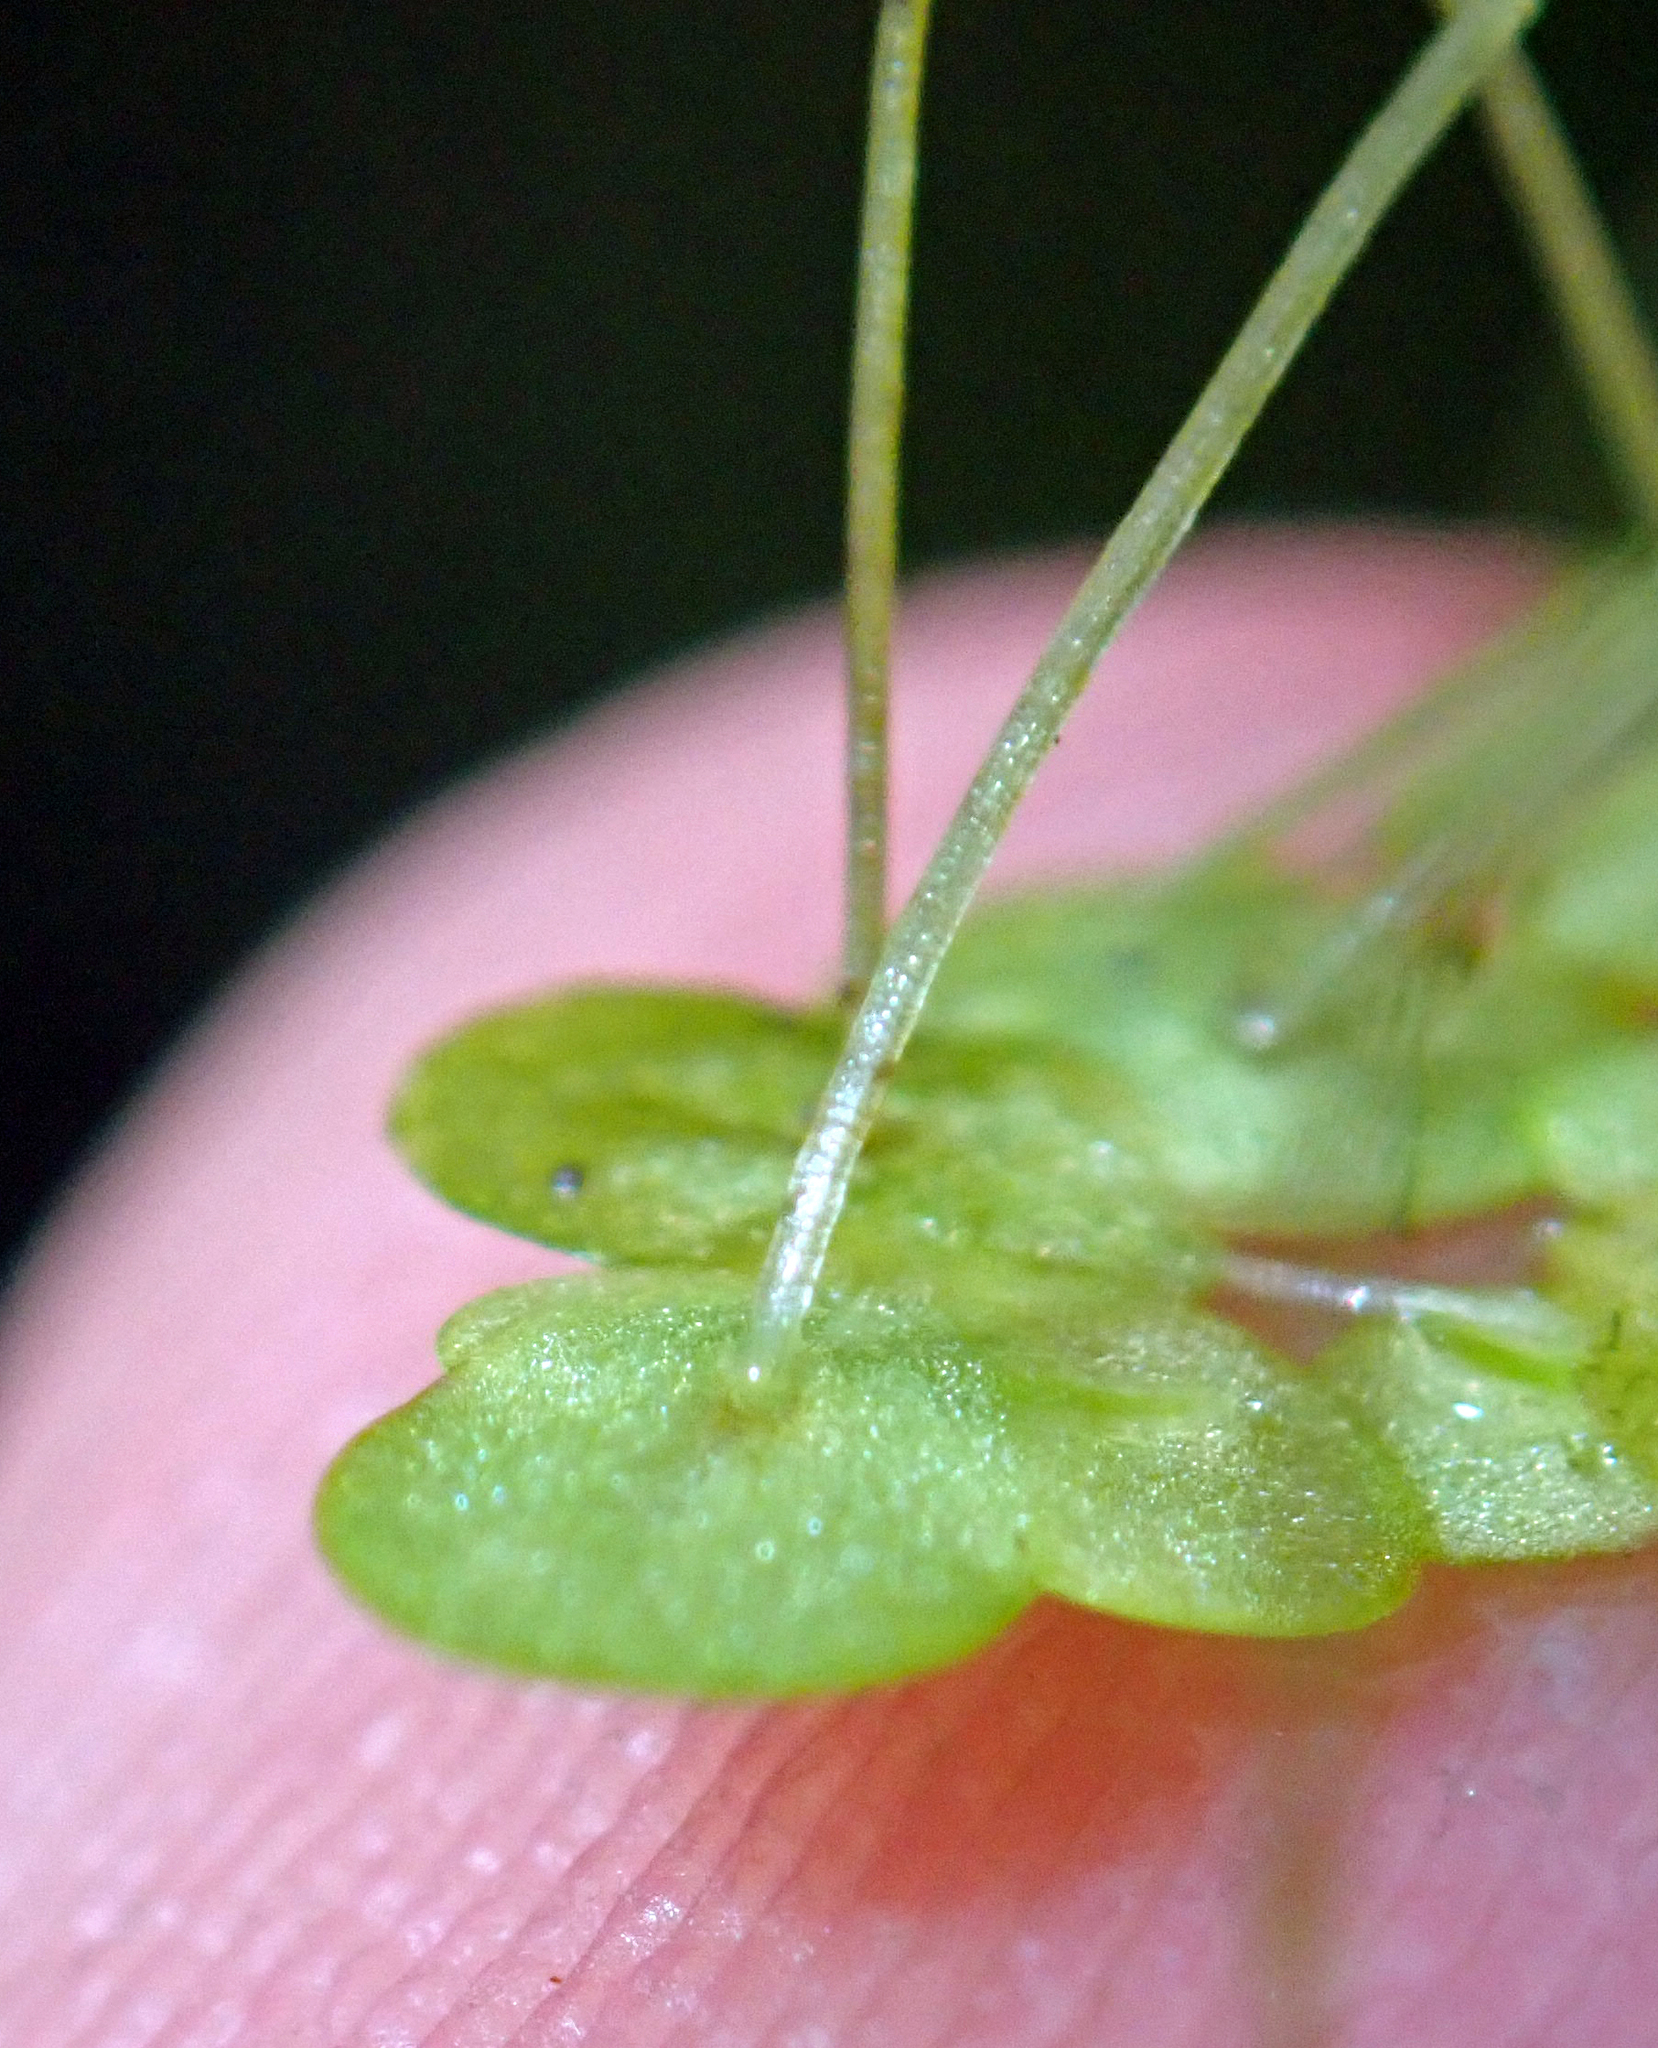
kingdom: Plantae
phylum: Tracheophyta
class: Liliopsida
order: Alismatales
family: Araceae
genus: Lemna
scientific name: Lemna aequinoctialis
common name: Duckweed
